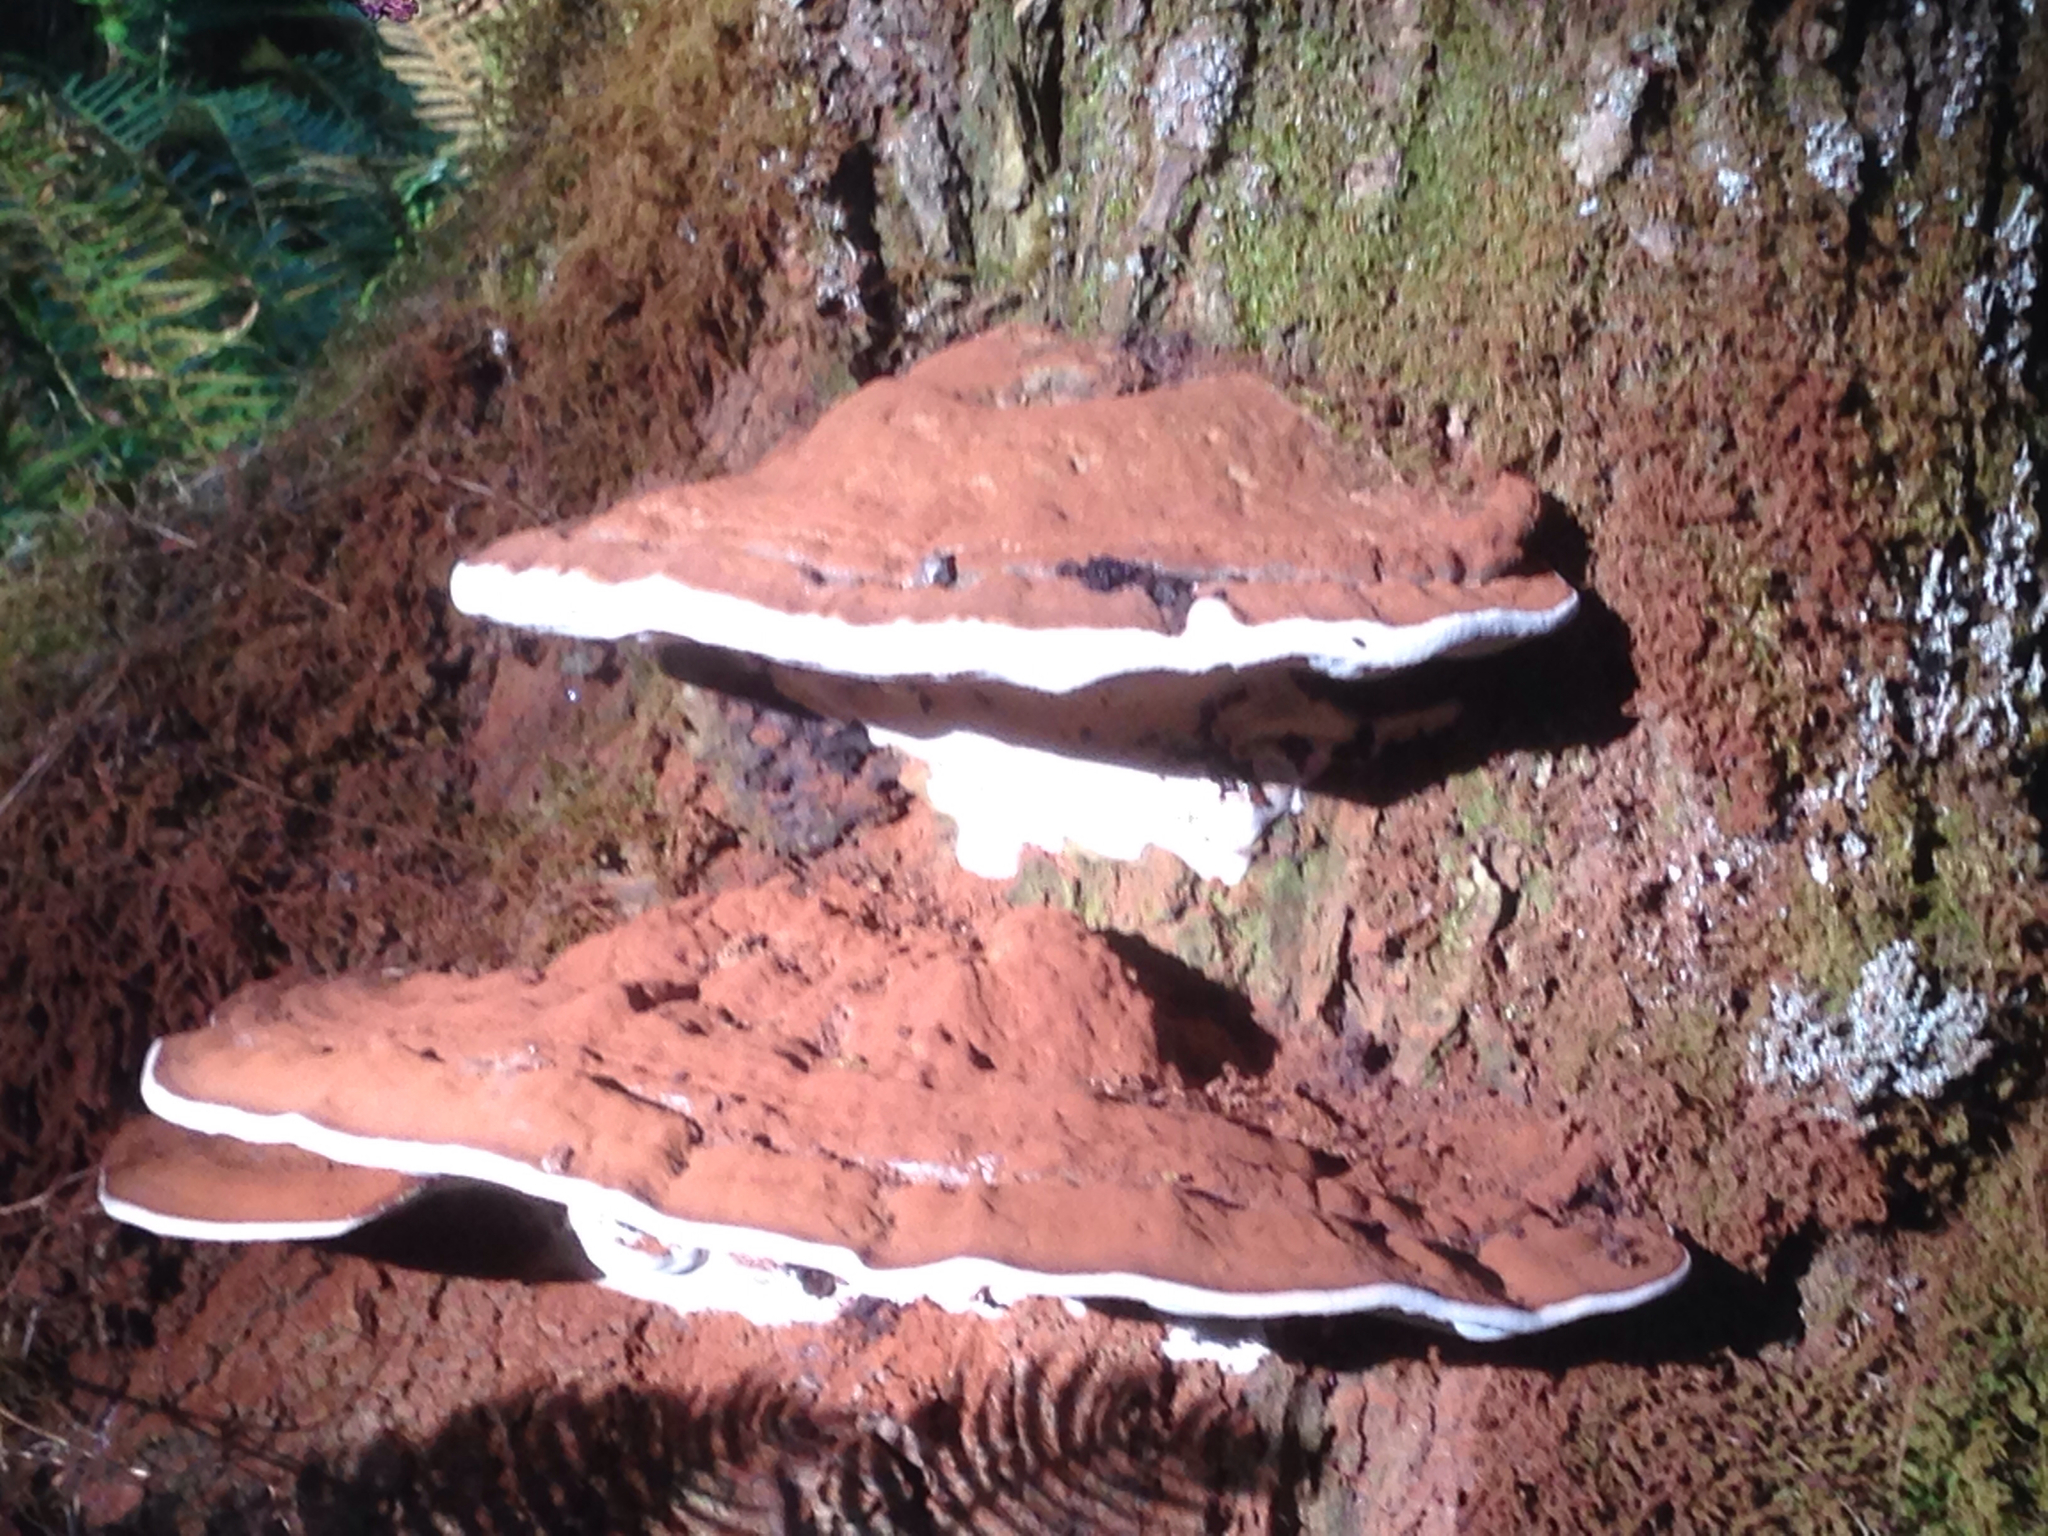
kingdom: Fungi
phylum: Basidiomycota
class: Agaricomycetes
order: Polyporales
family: Polyporaceae
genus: Ganoderma
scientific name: Ganoderma applanatum
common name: Artist's bracket
